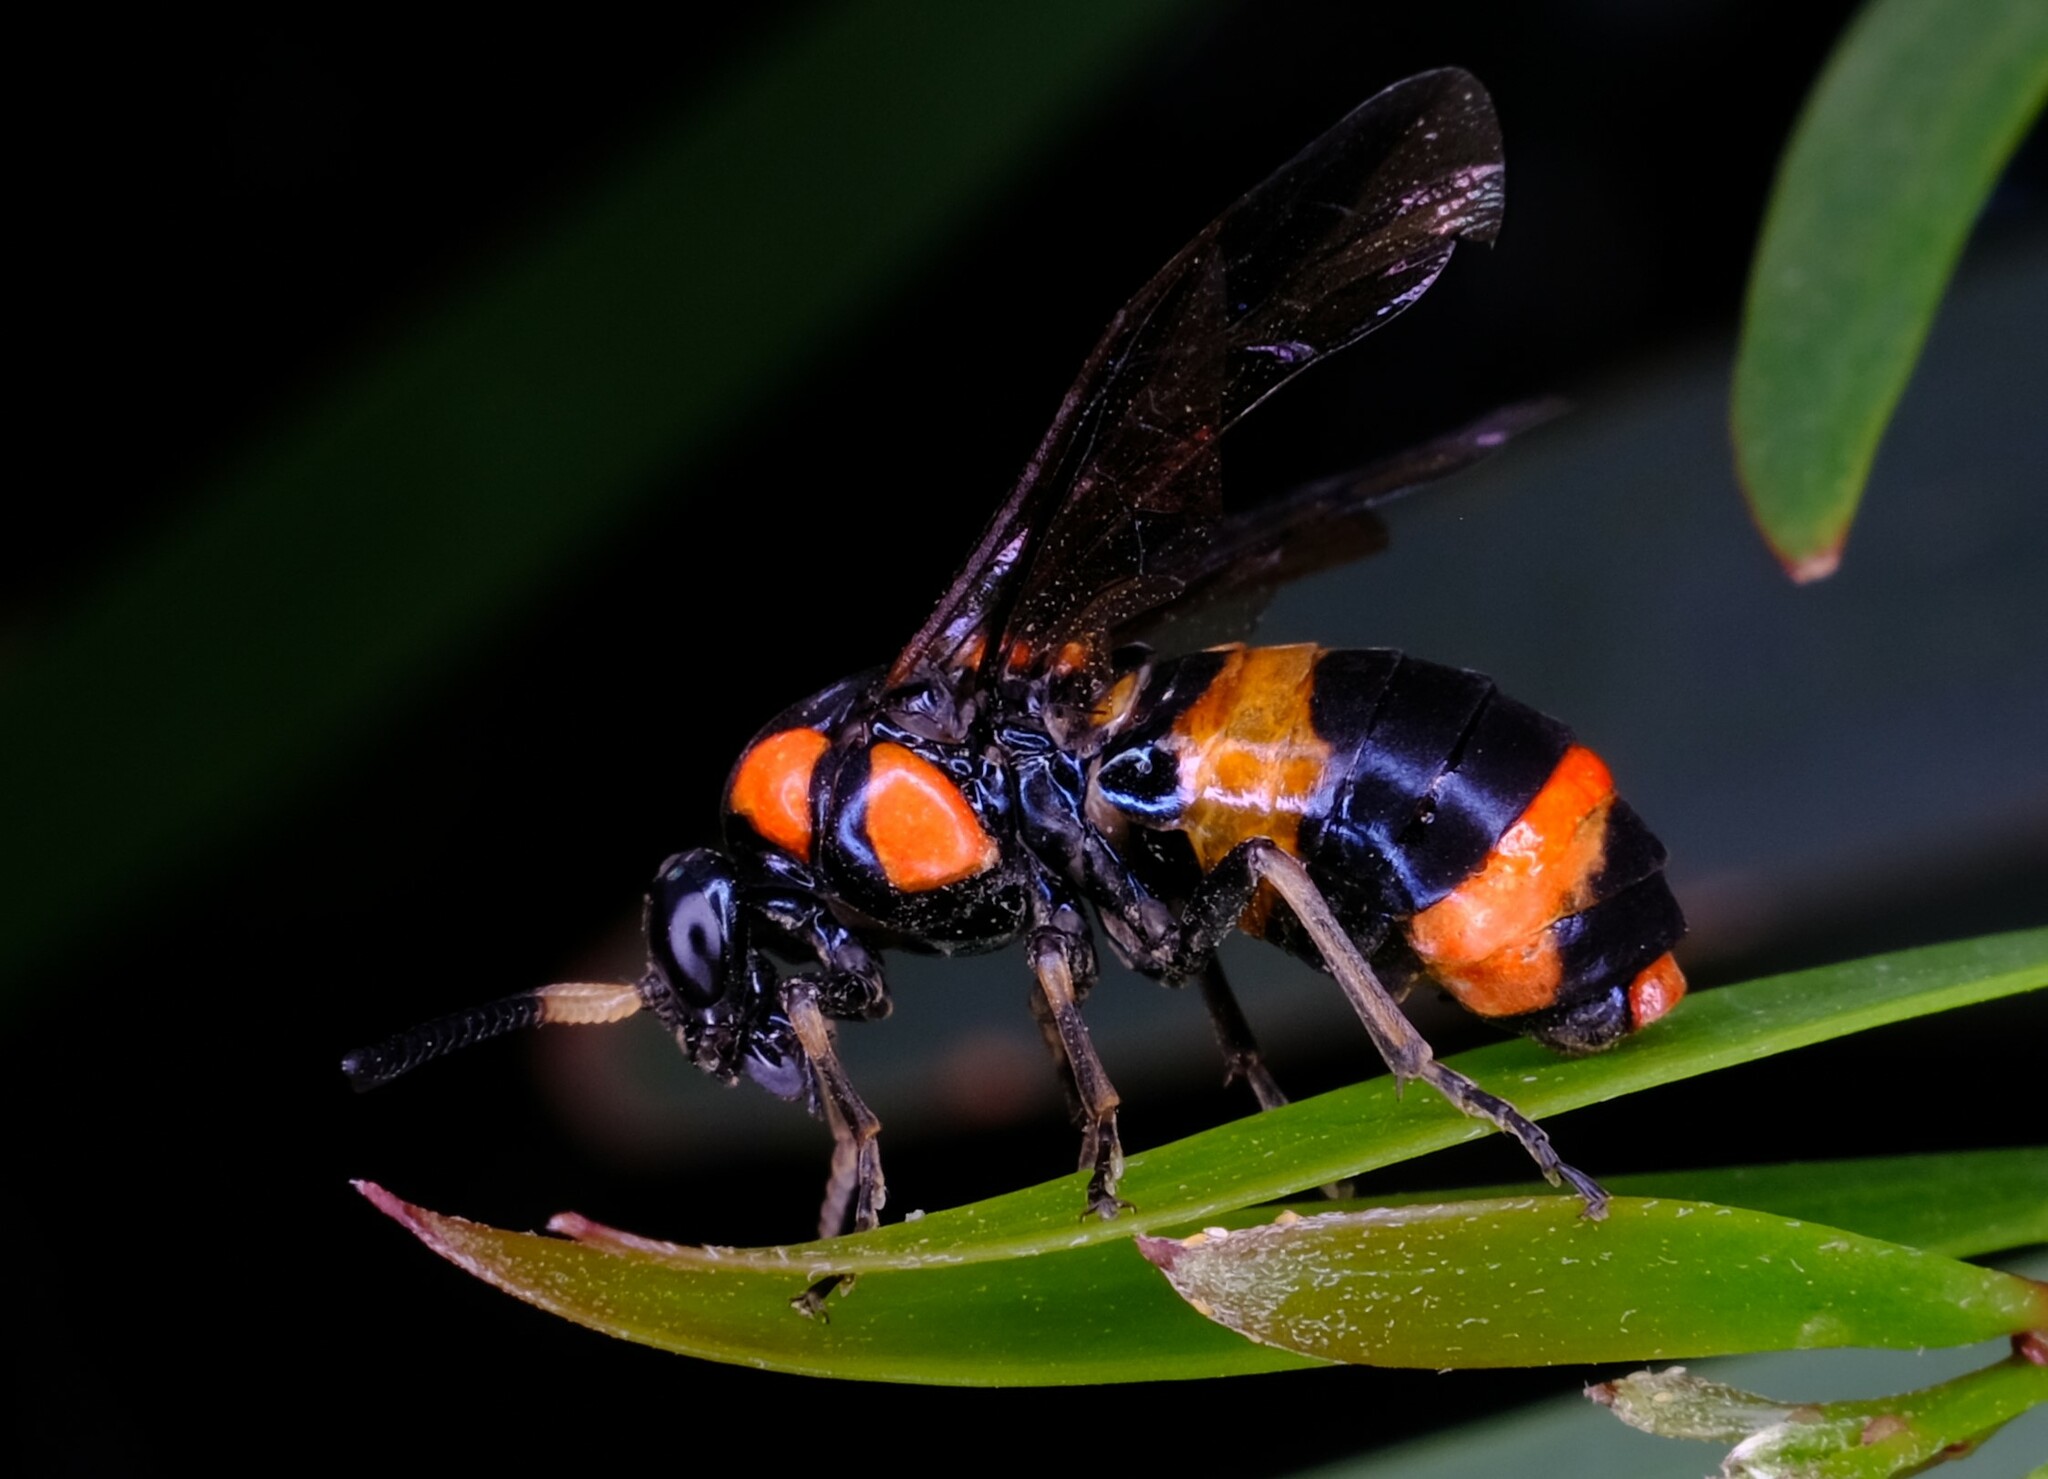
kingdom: Animalia
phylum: Arthropoda
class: Insecta
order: Hymenoptera
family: Pergidae
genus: Pterygophorus
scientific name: Pterygophorus
